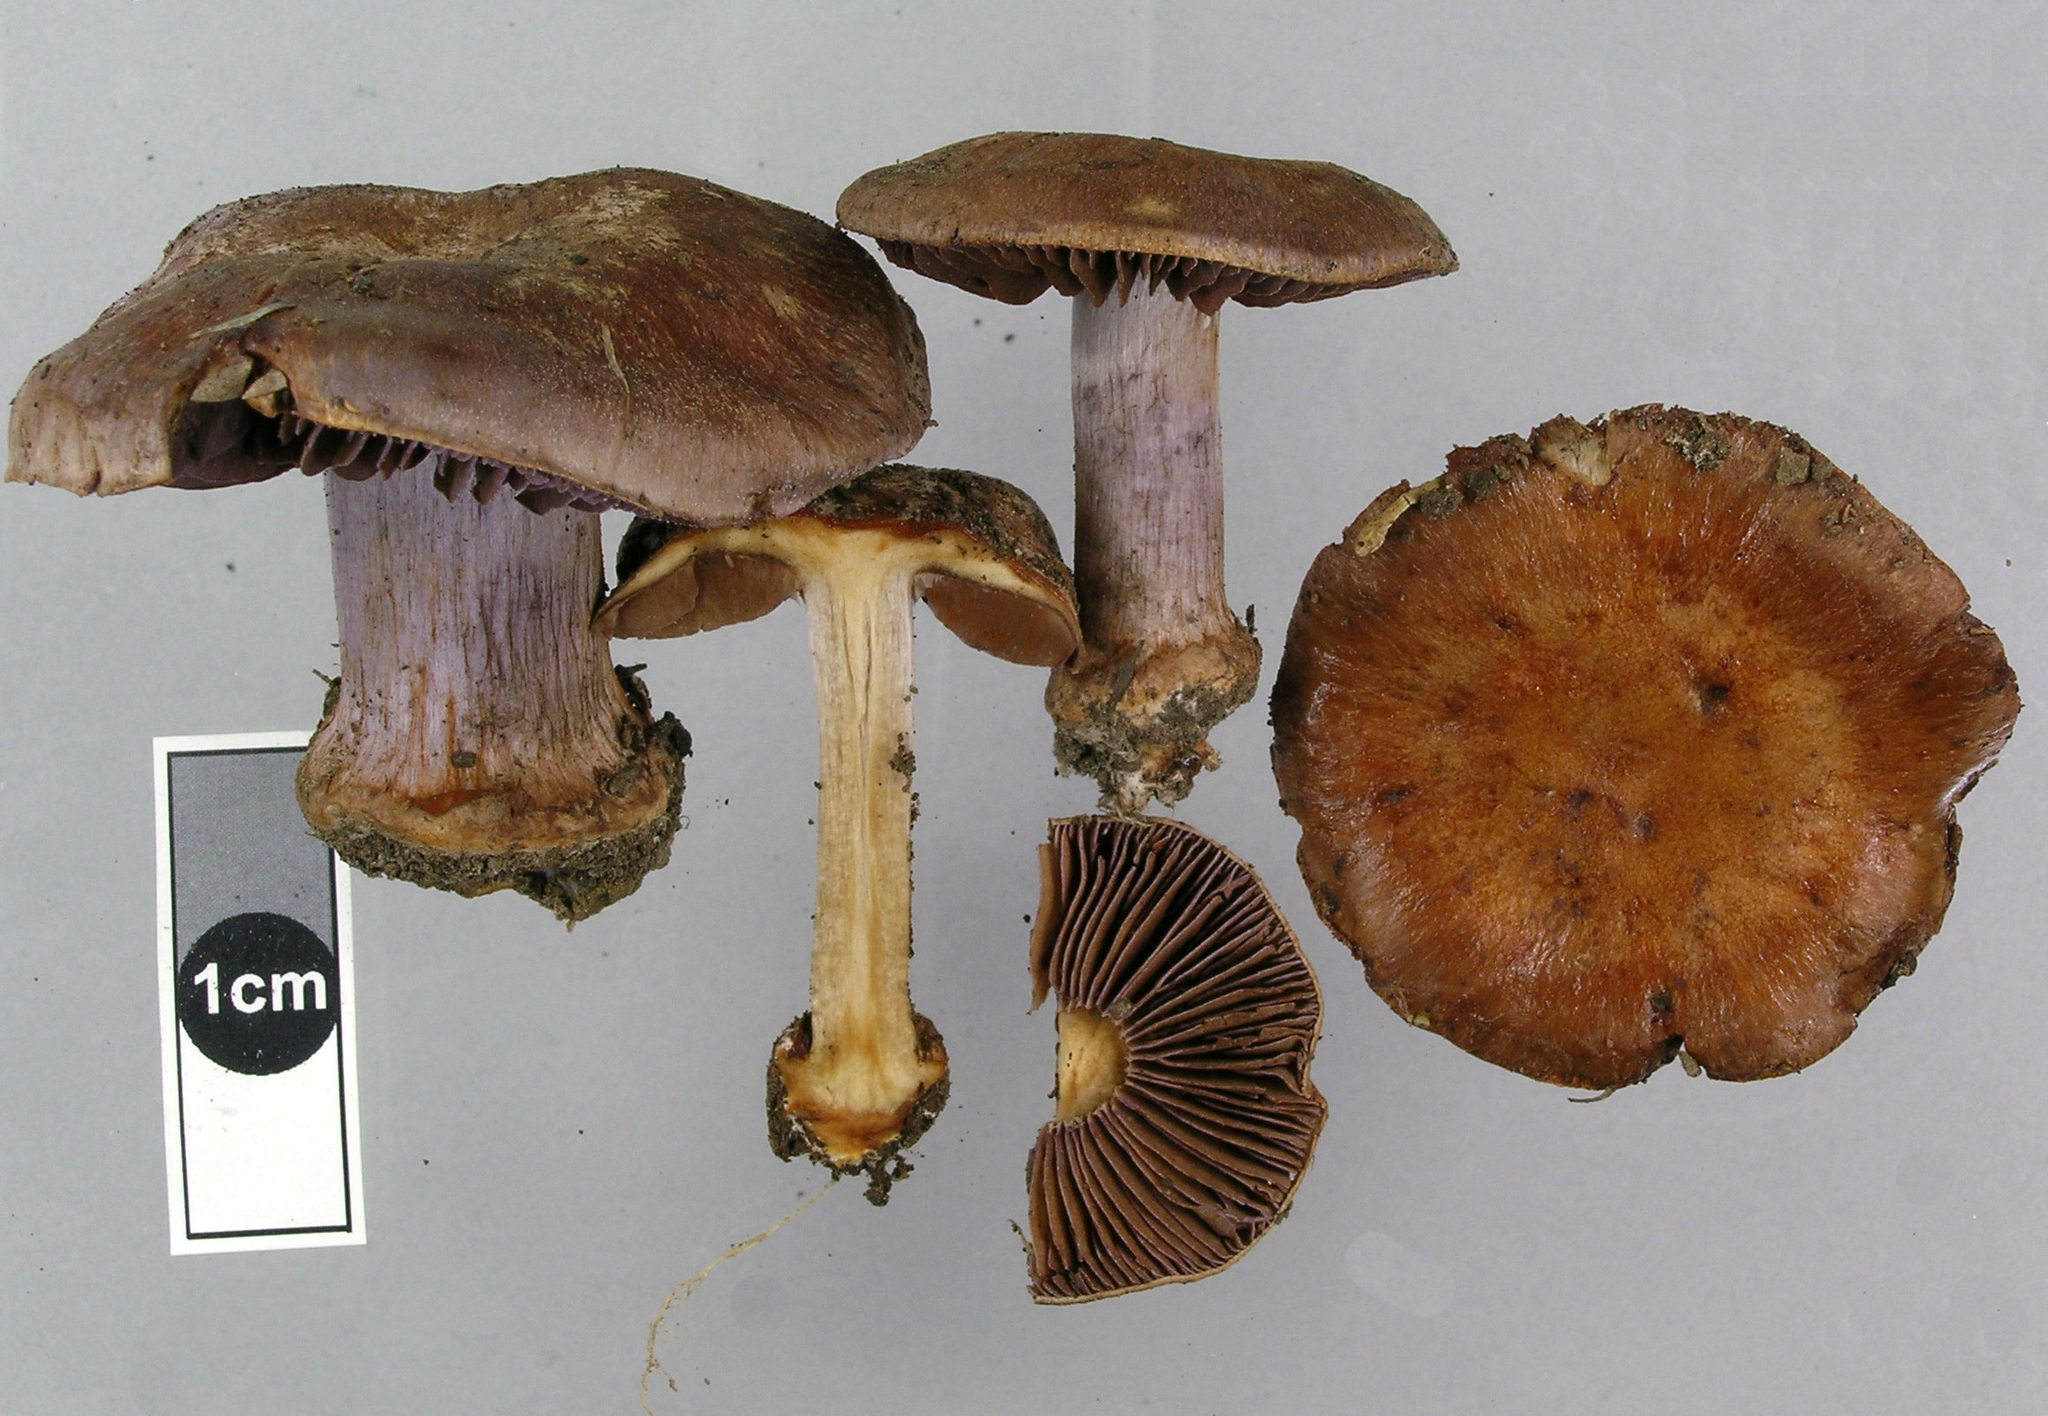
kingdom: Fungi
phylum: Basidiomycota
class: Agaricomycetes
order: Agaricales
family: Cortinariaceae
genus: Cortinarius
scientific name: Cortinarius minoscaurus
